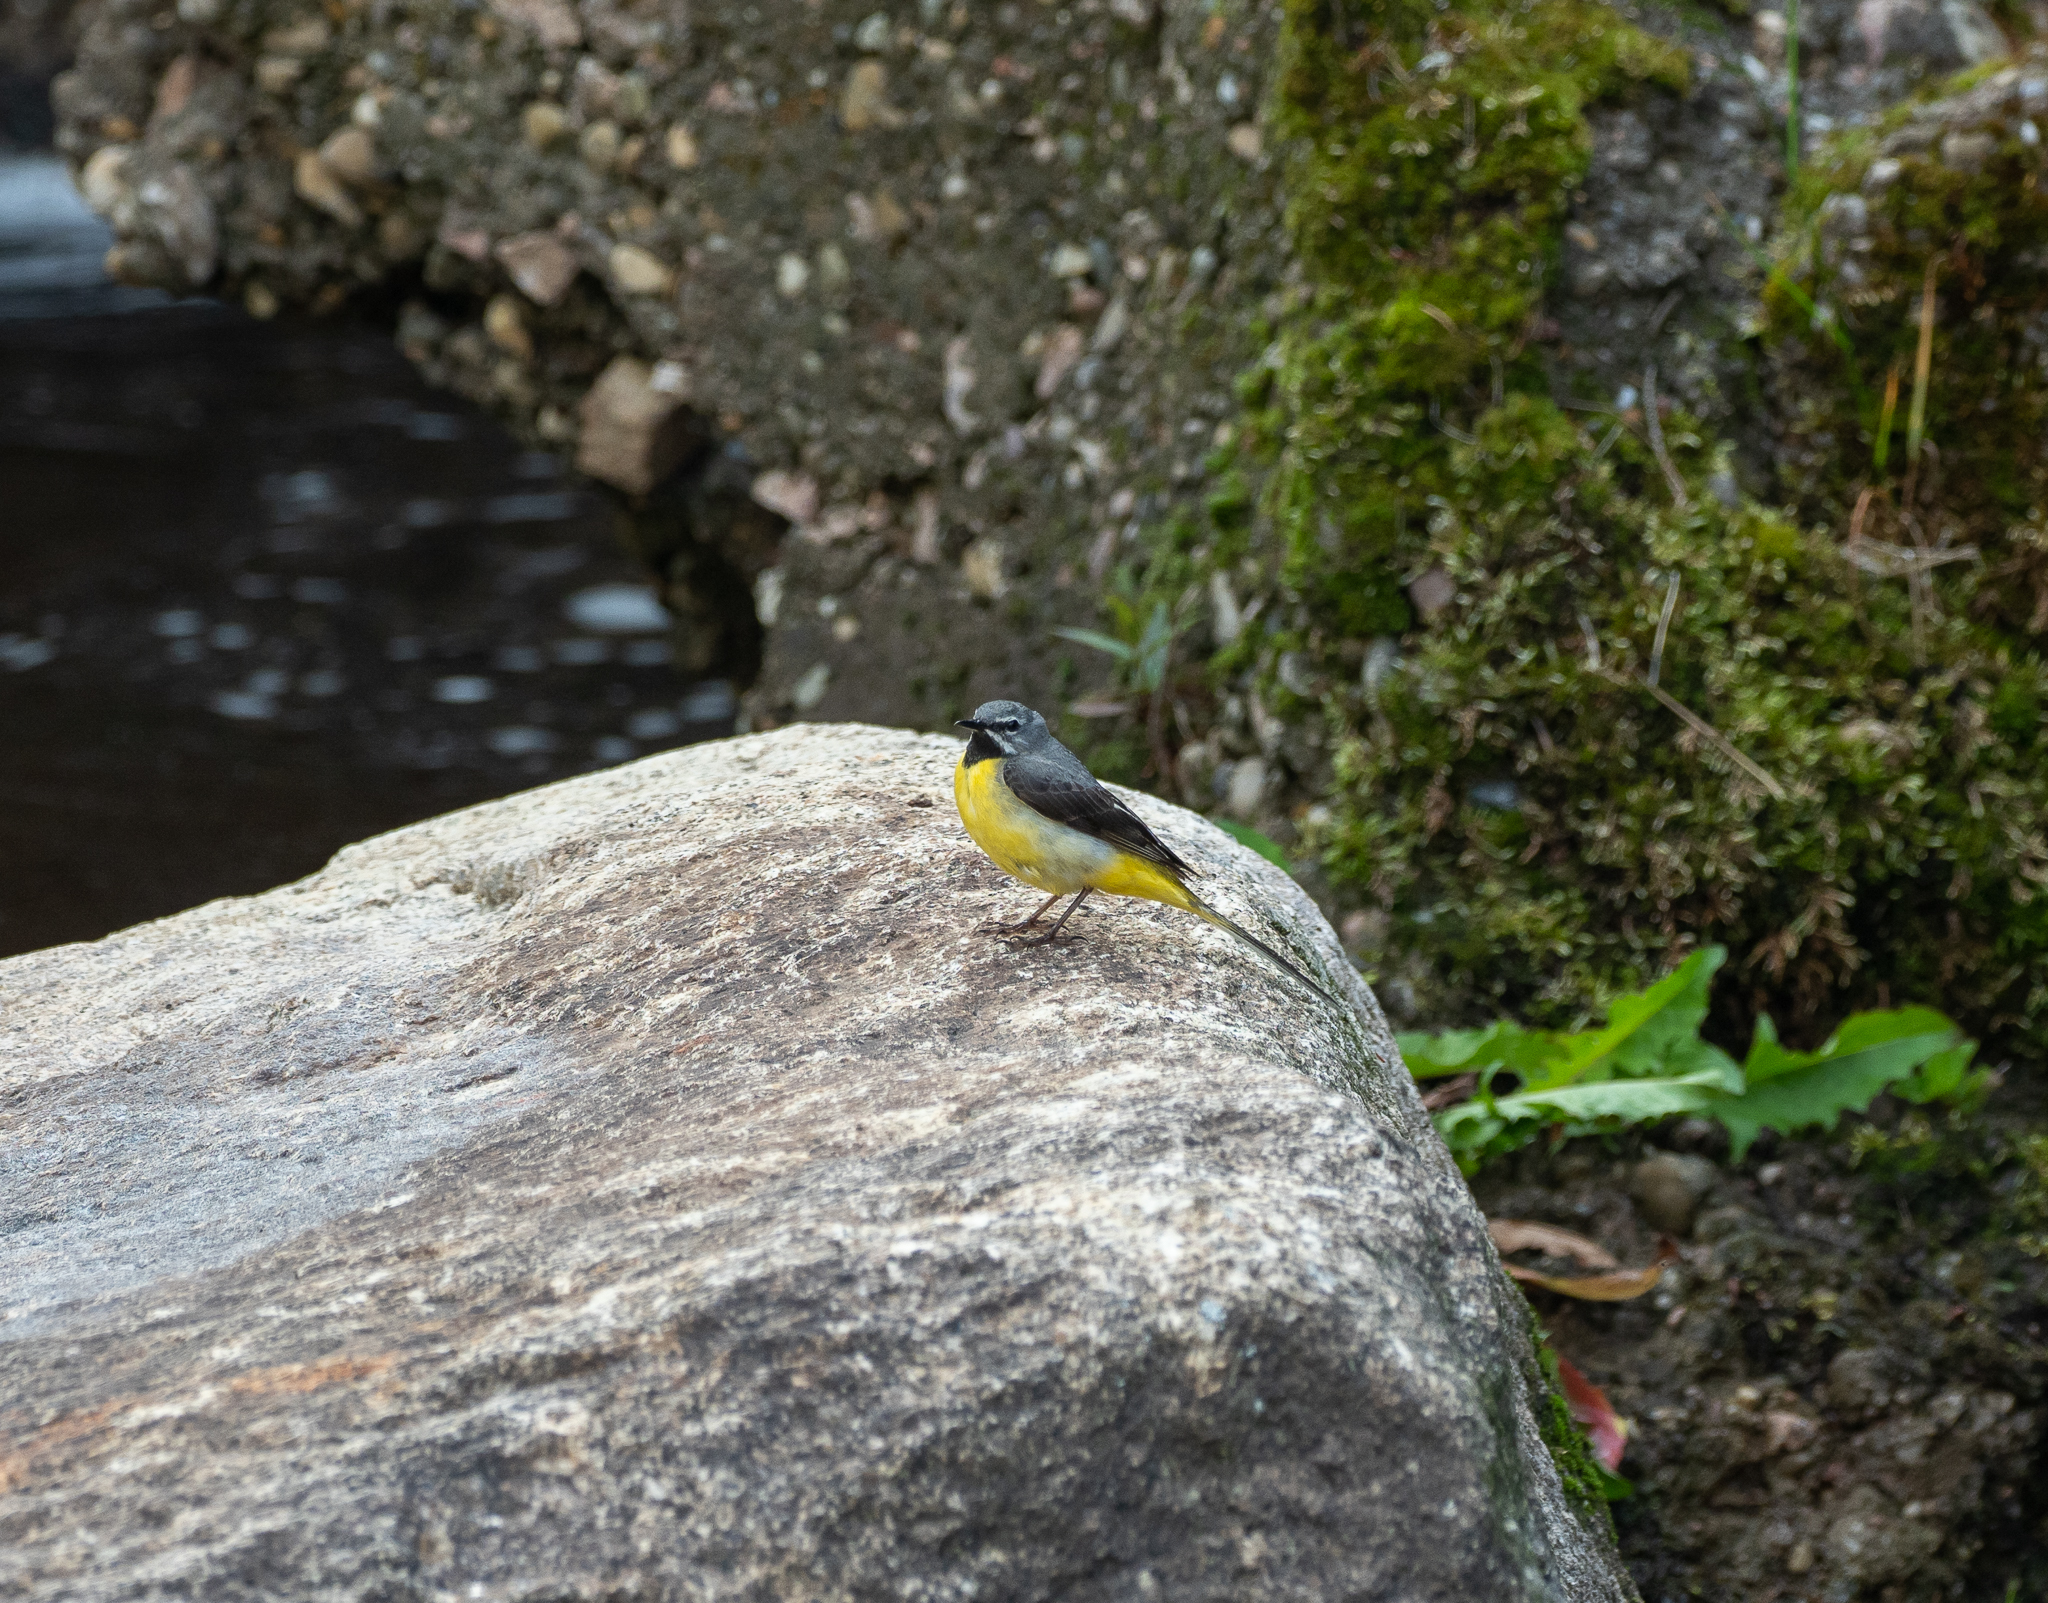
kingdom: Animalia
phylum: Chordata
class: Aves
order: Passeriformes
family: Motacillidae
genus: Motacilla
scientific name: Motacilla cinerea
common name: Grey wagtail
